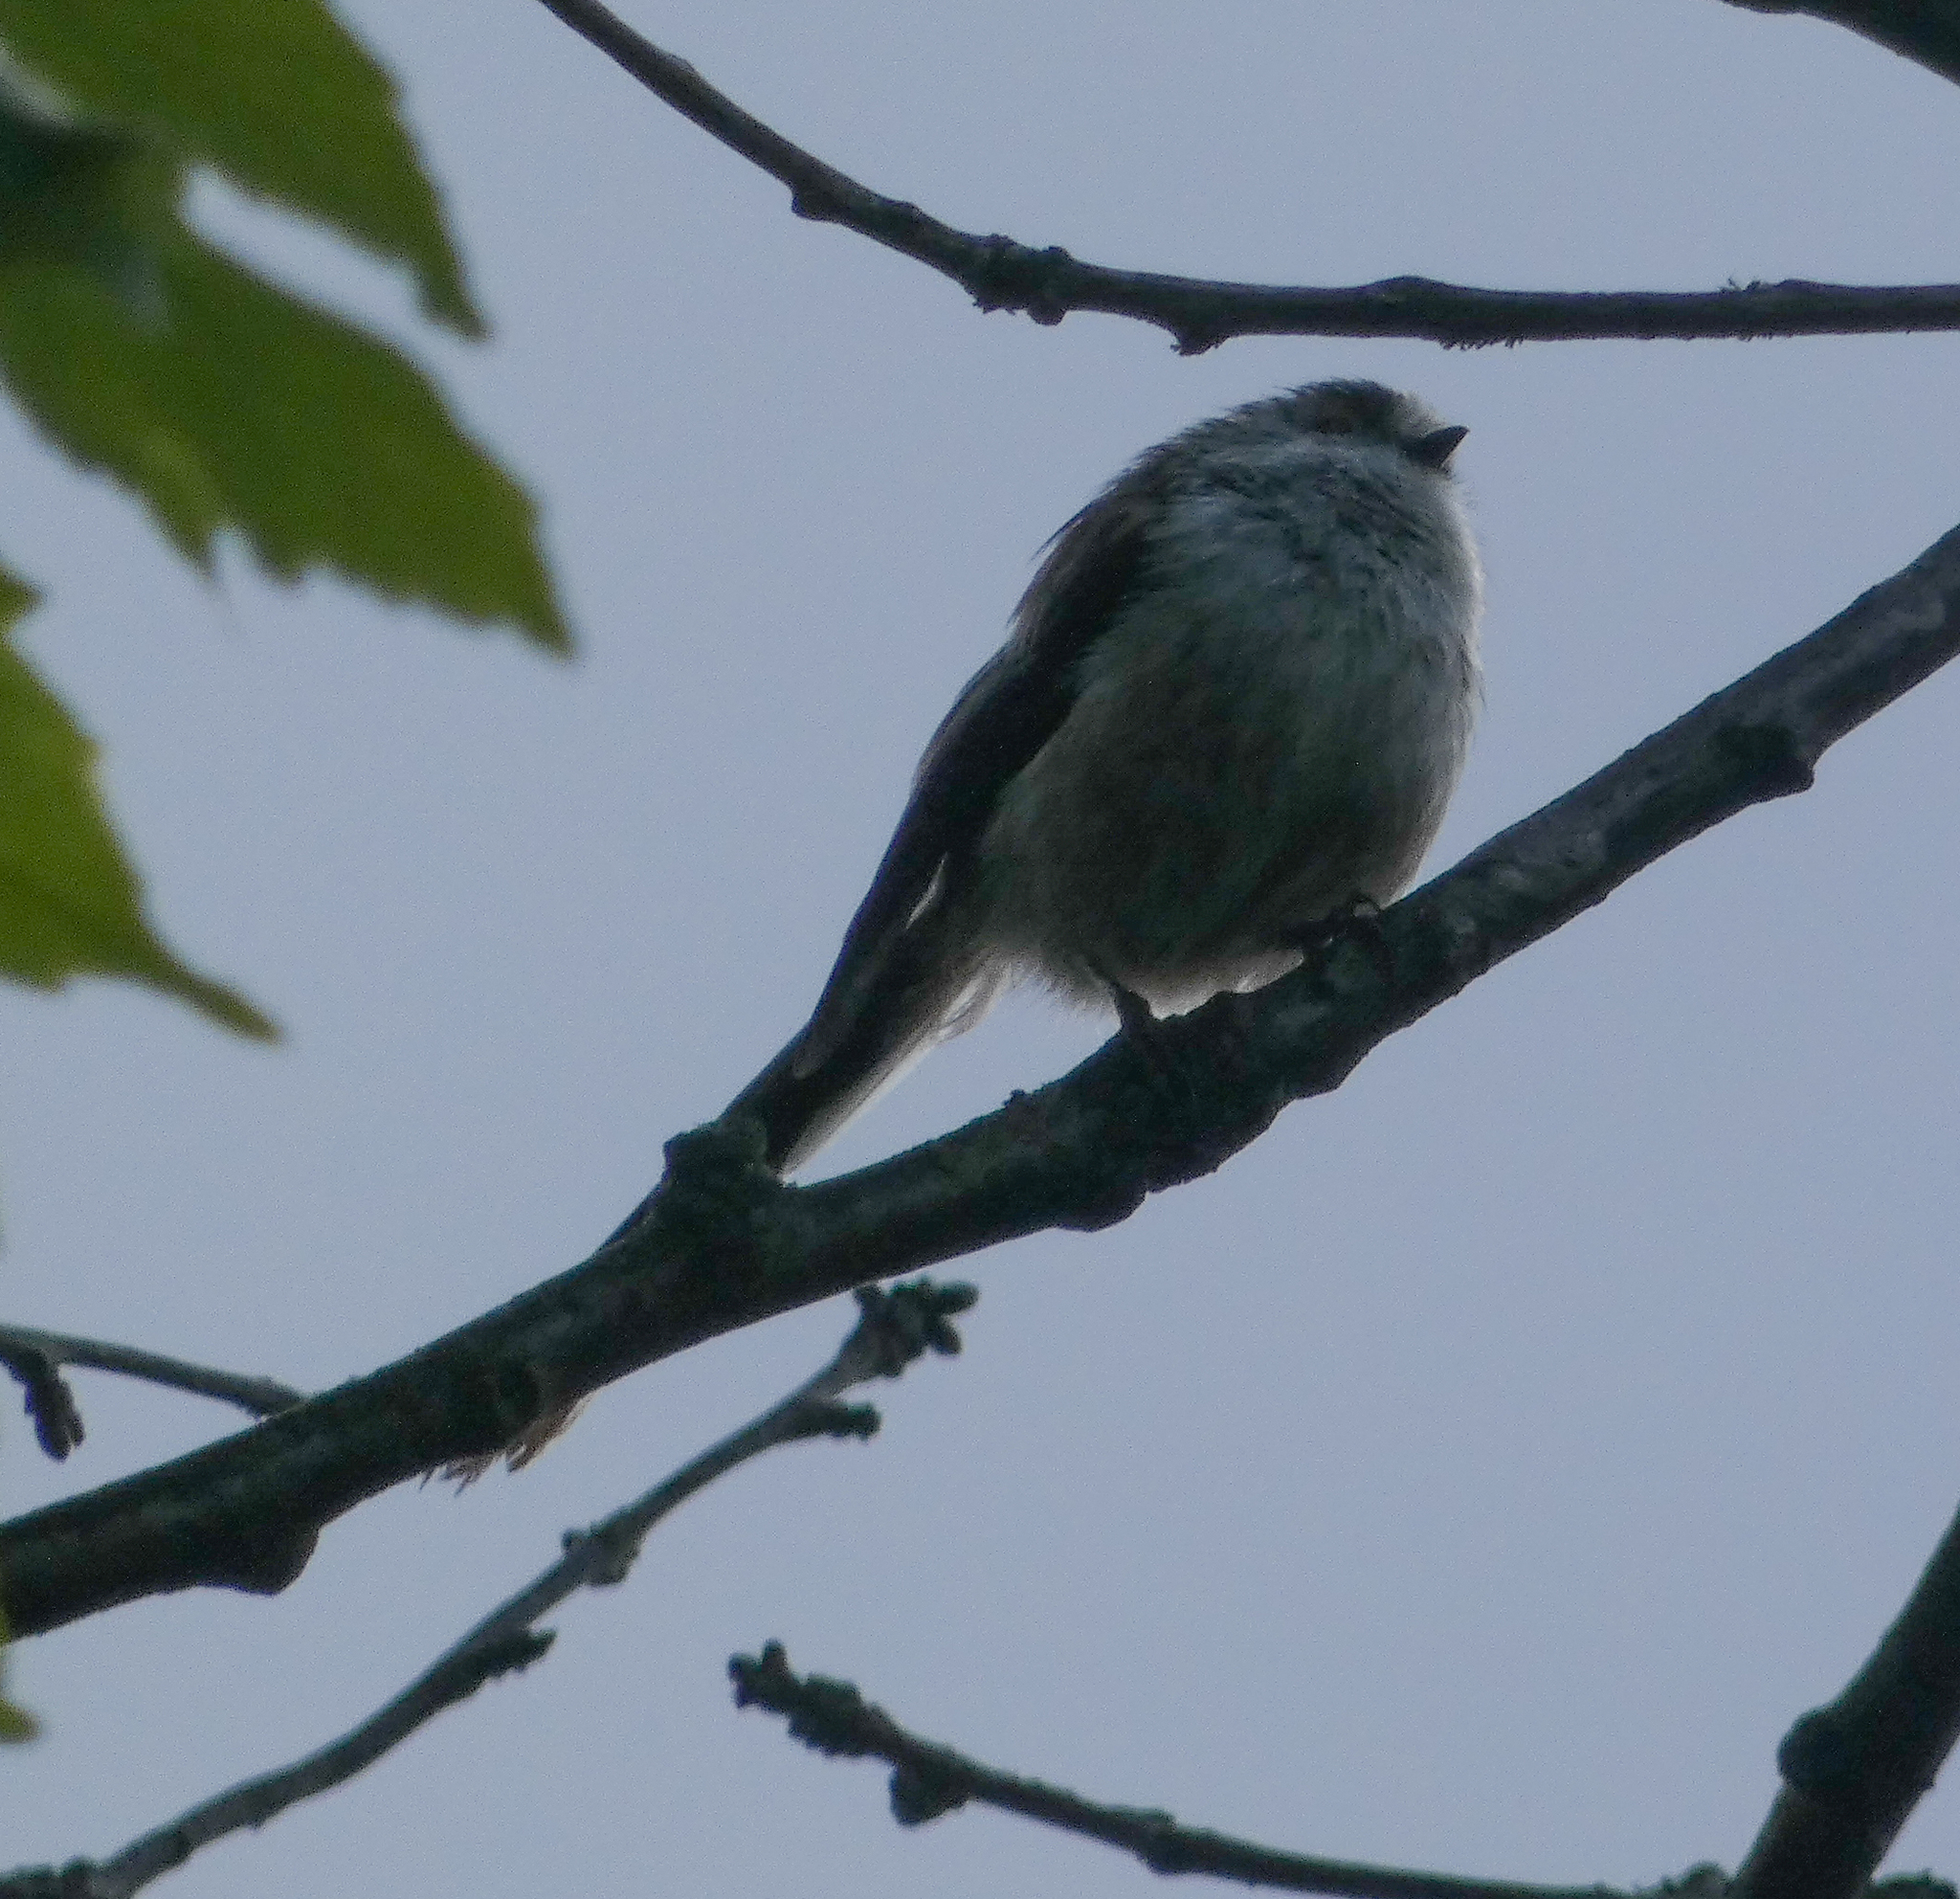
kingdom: Animalia
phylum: Chordata
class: Aves
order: Passeriformes
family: Aegithalidae
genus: Aegithalos
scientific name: Aegithalos caudatus
